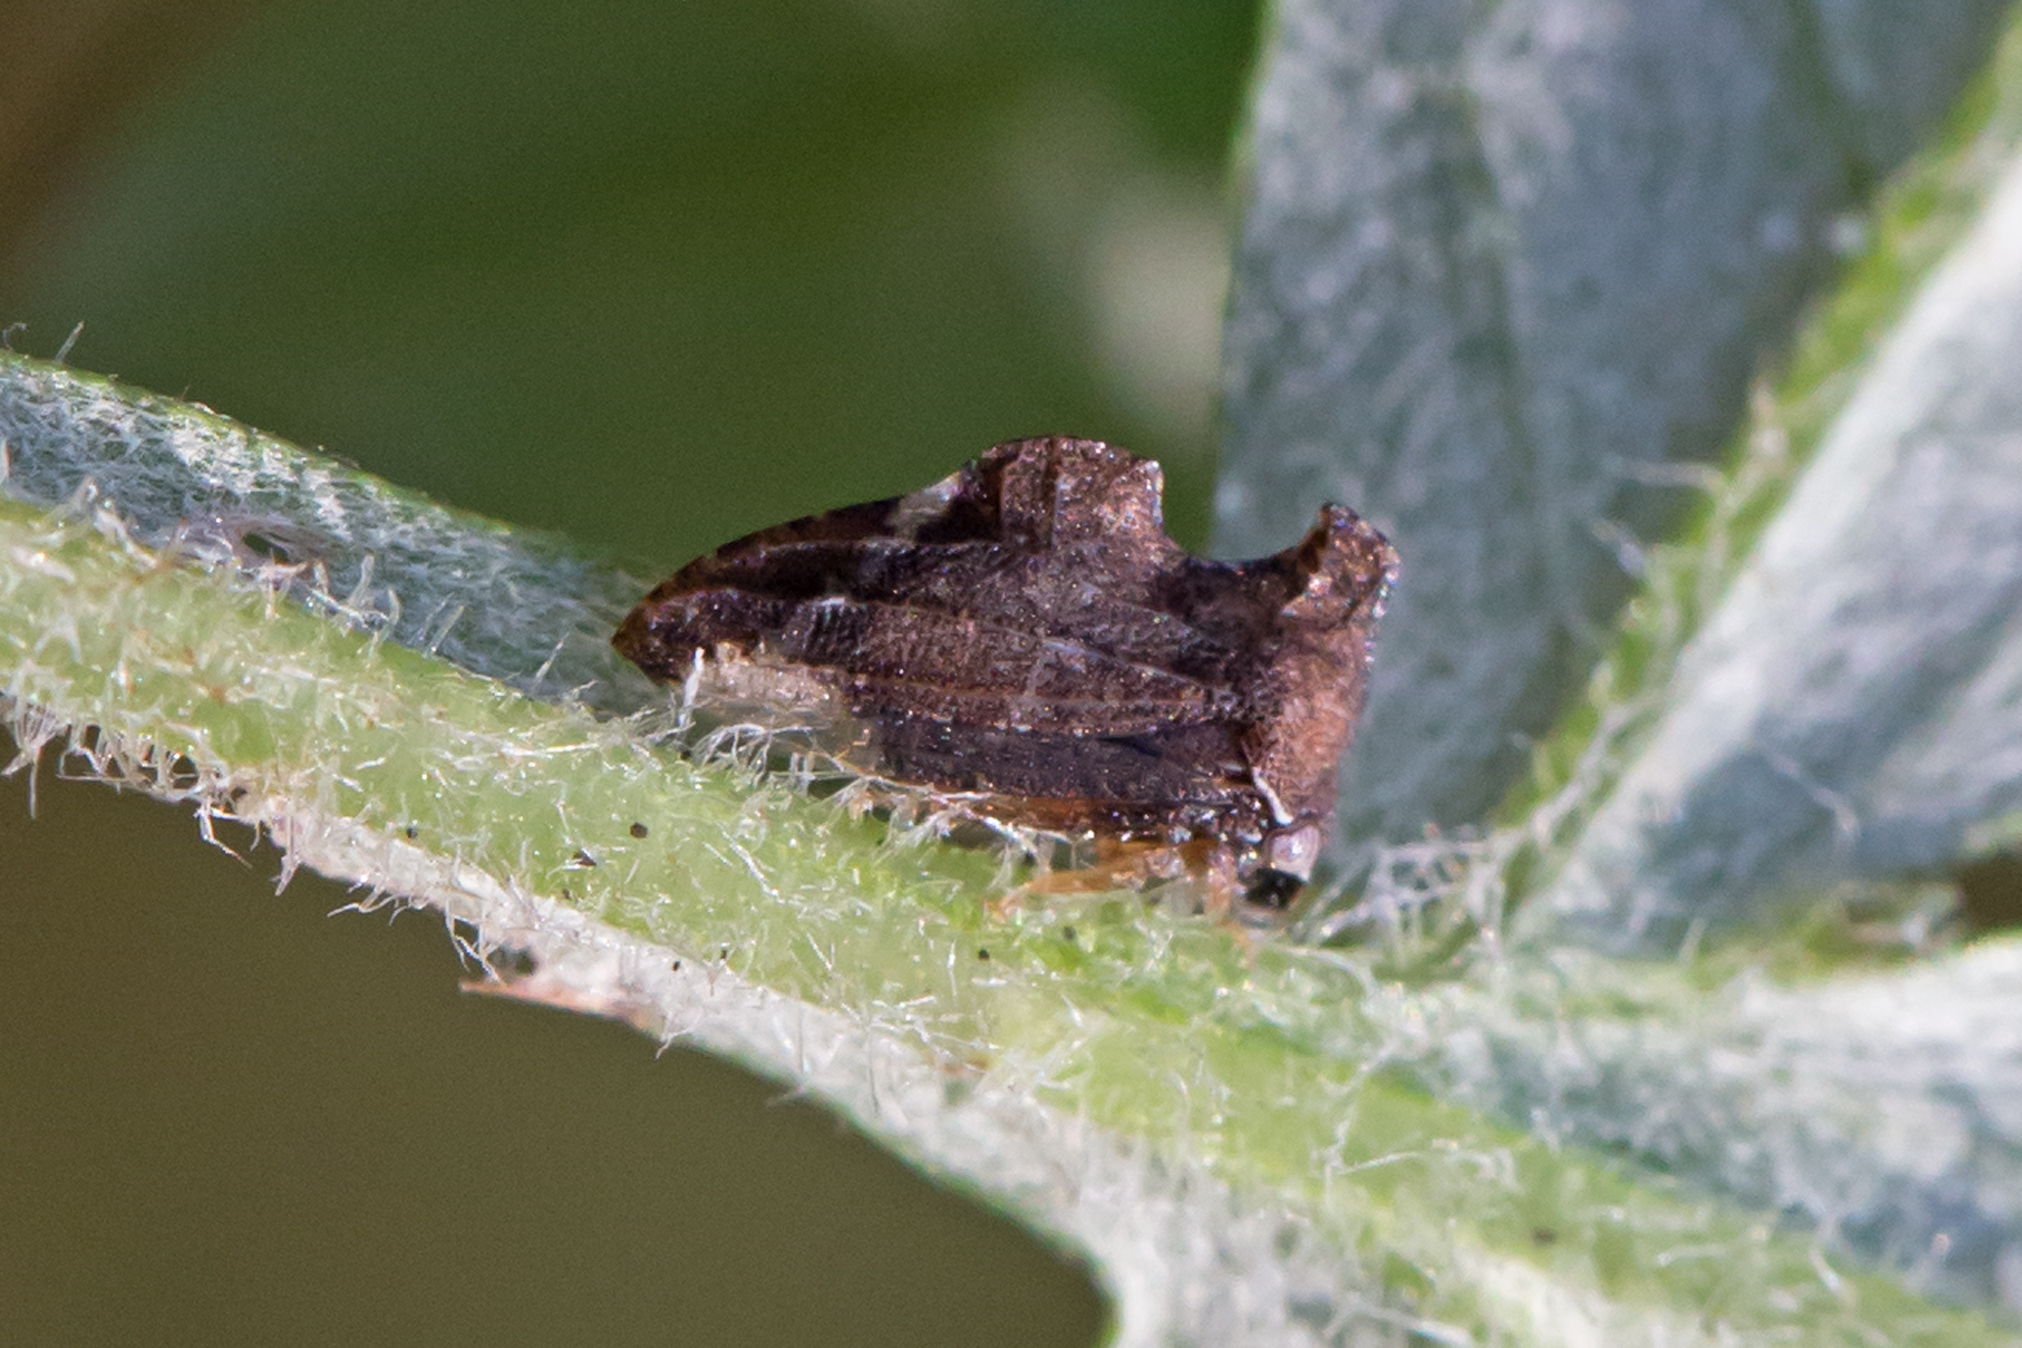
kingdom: Animalia
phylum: Arthropoda
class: Insecta
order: Hemiptera
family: Membracidae
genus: Entylia
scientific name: Entylia carinata
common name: Keeled treehopper
